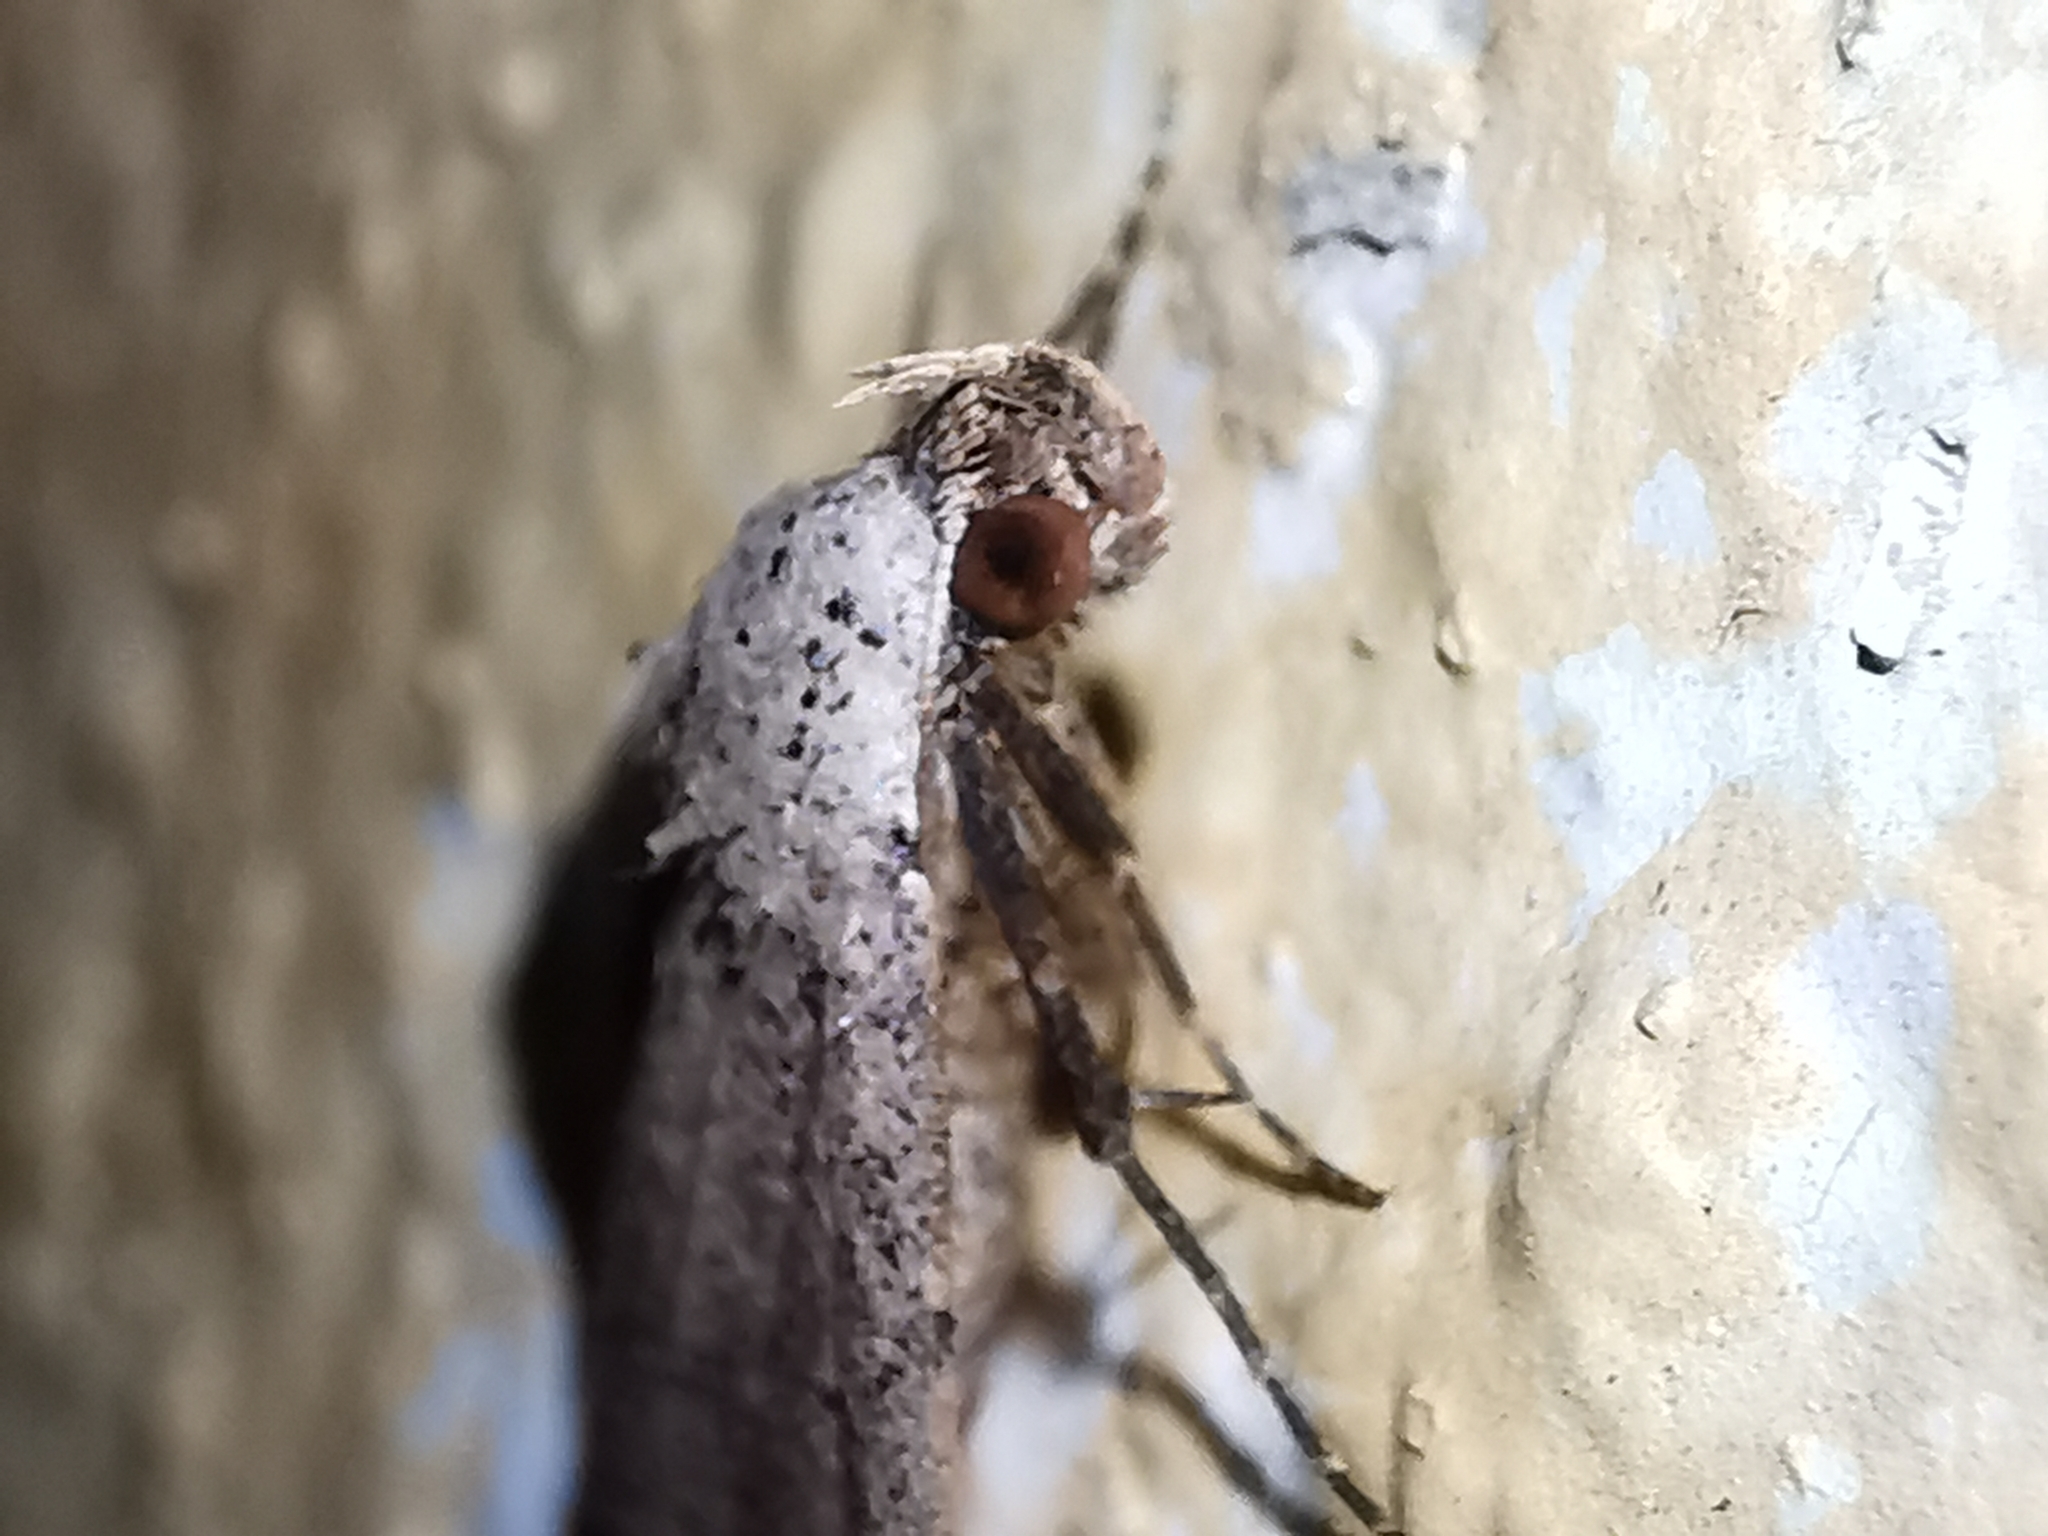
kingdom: Animalia
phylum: Arthropoda
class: Insecta
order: Lepidoptera
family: Erebidae
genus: Bleptina
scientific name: Bleptina caradrinalis
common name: Bent-winged owlet
